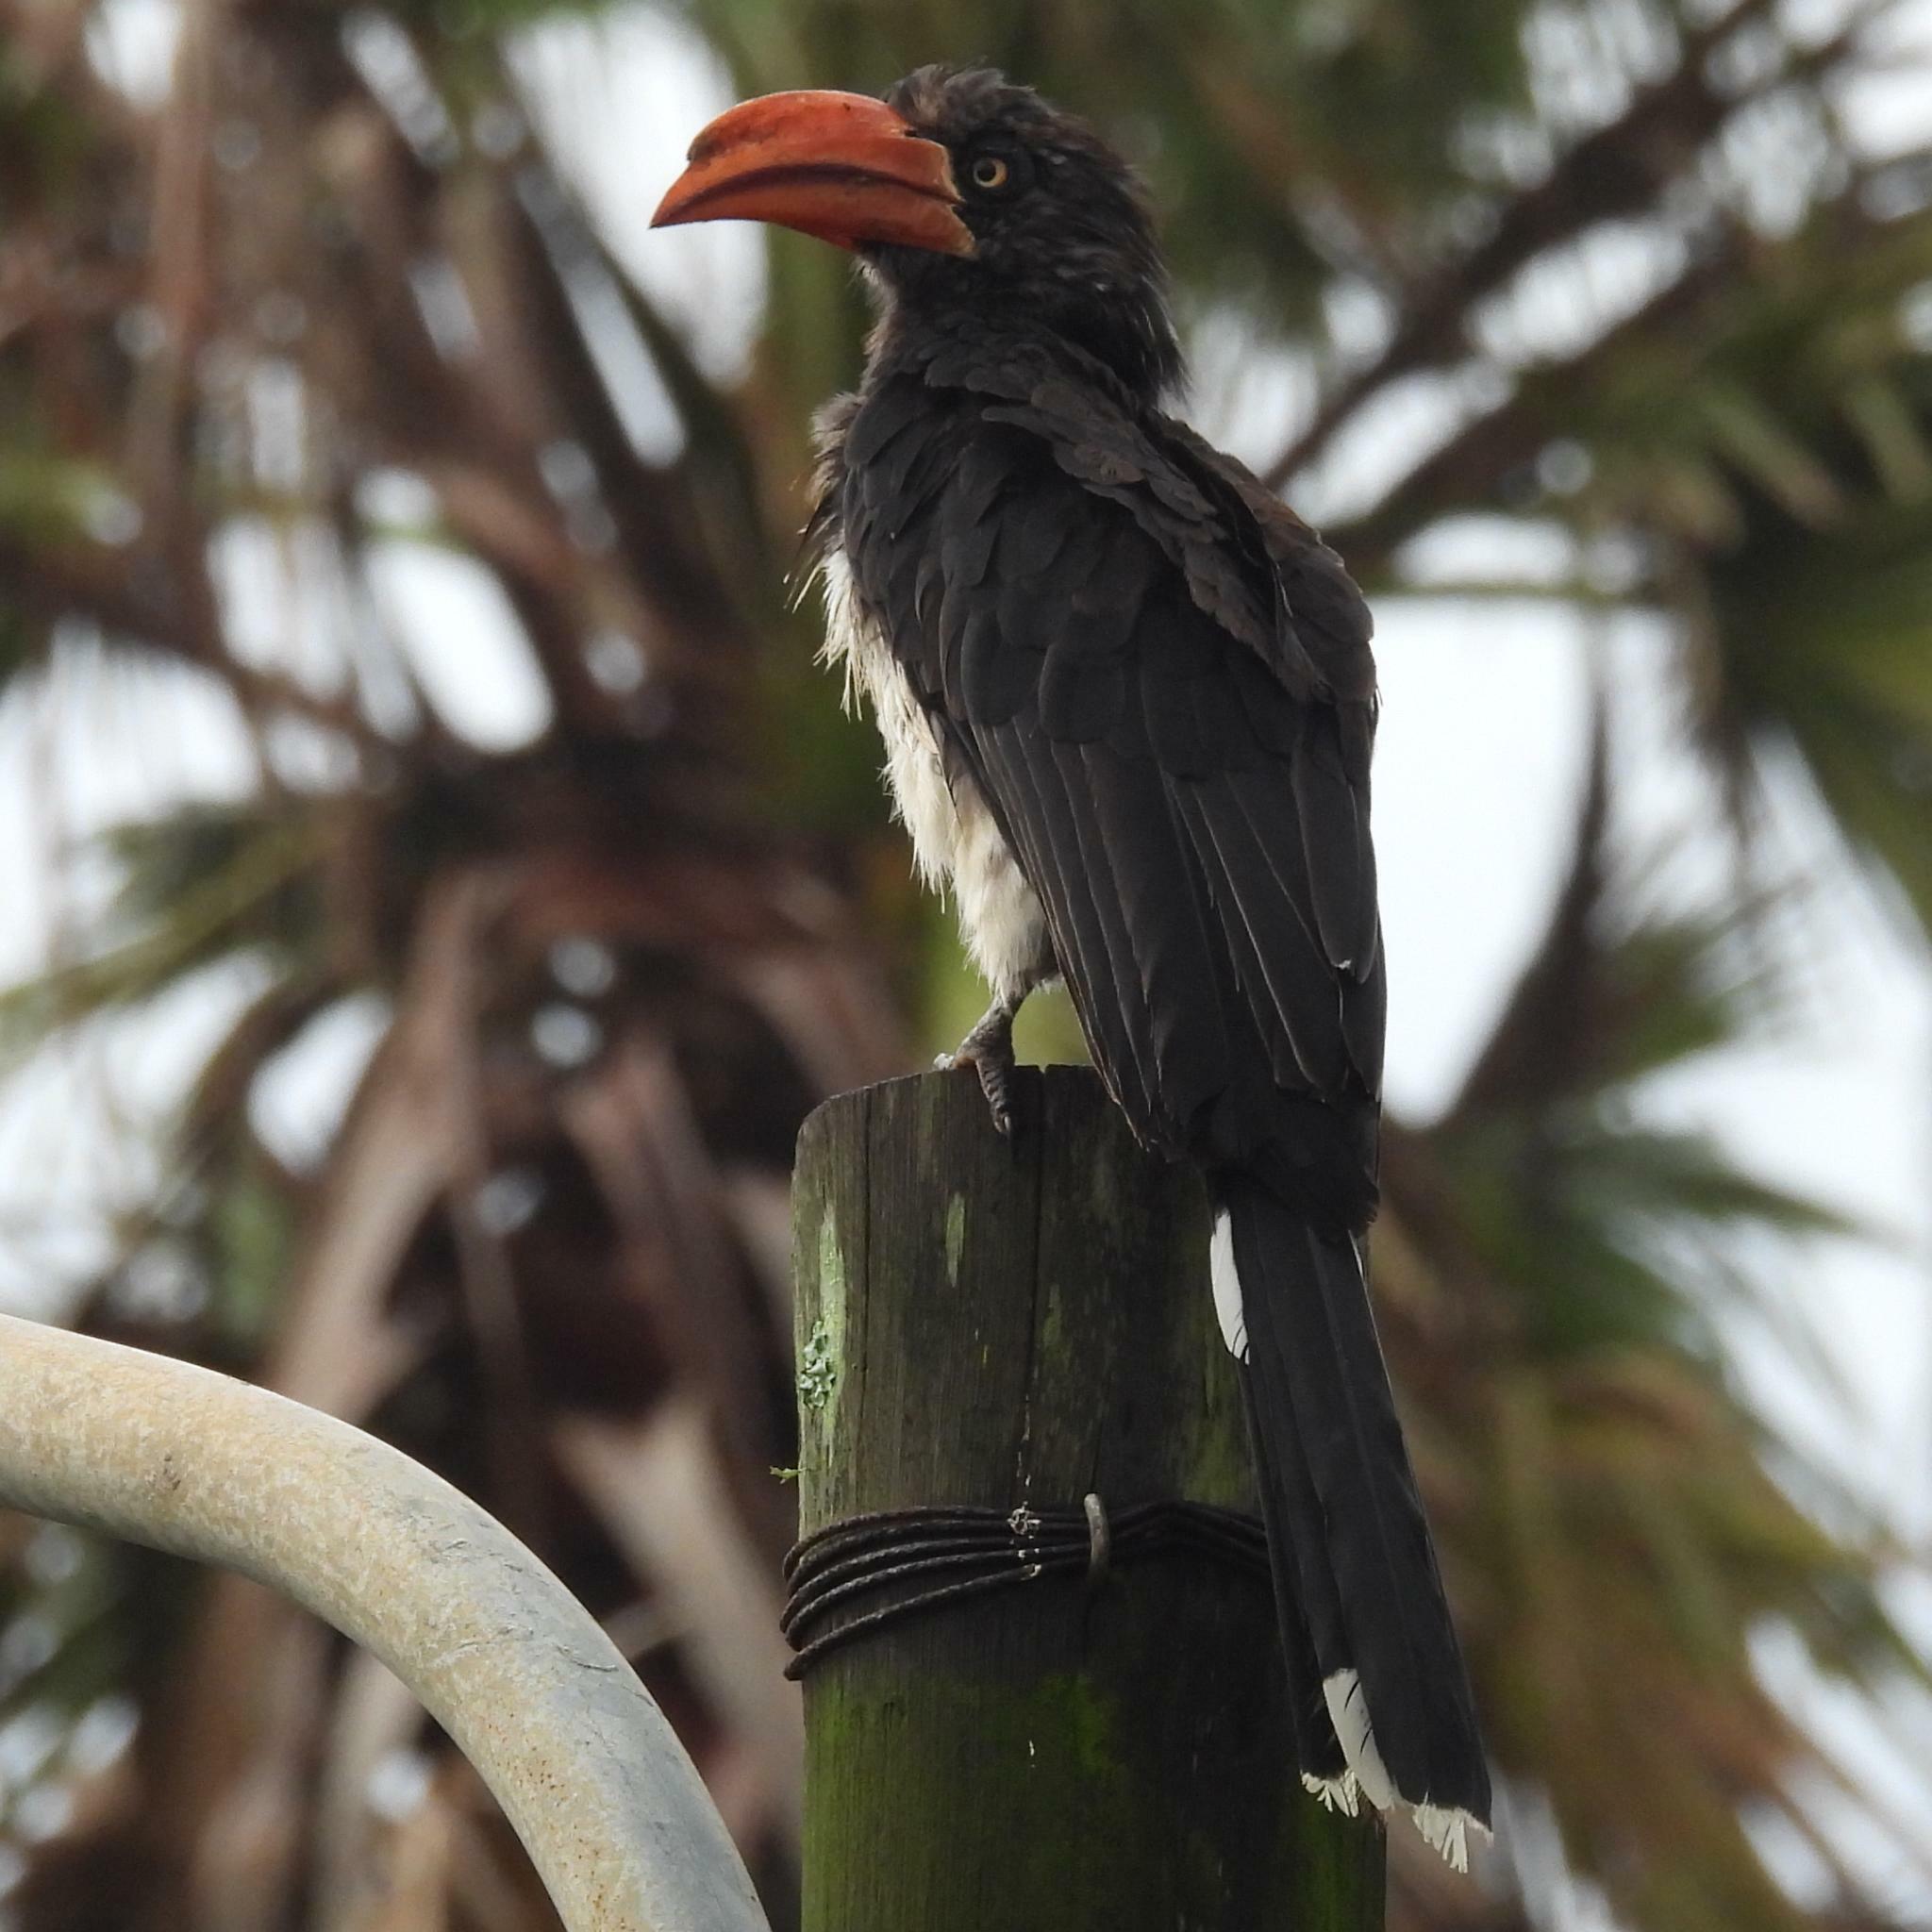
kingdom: Animalia
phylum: Chordata
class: Aves
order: Bucerotiformes
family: Bucerotidae
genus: Lophoceros
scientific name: Lophoceros alboterminatus
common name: Crowned hornbill
